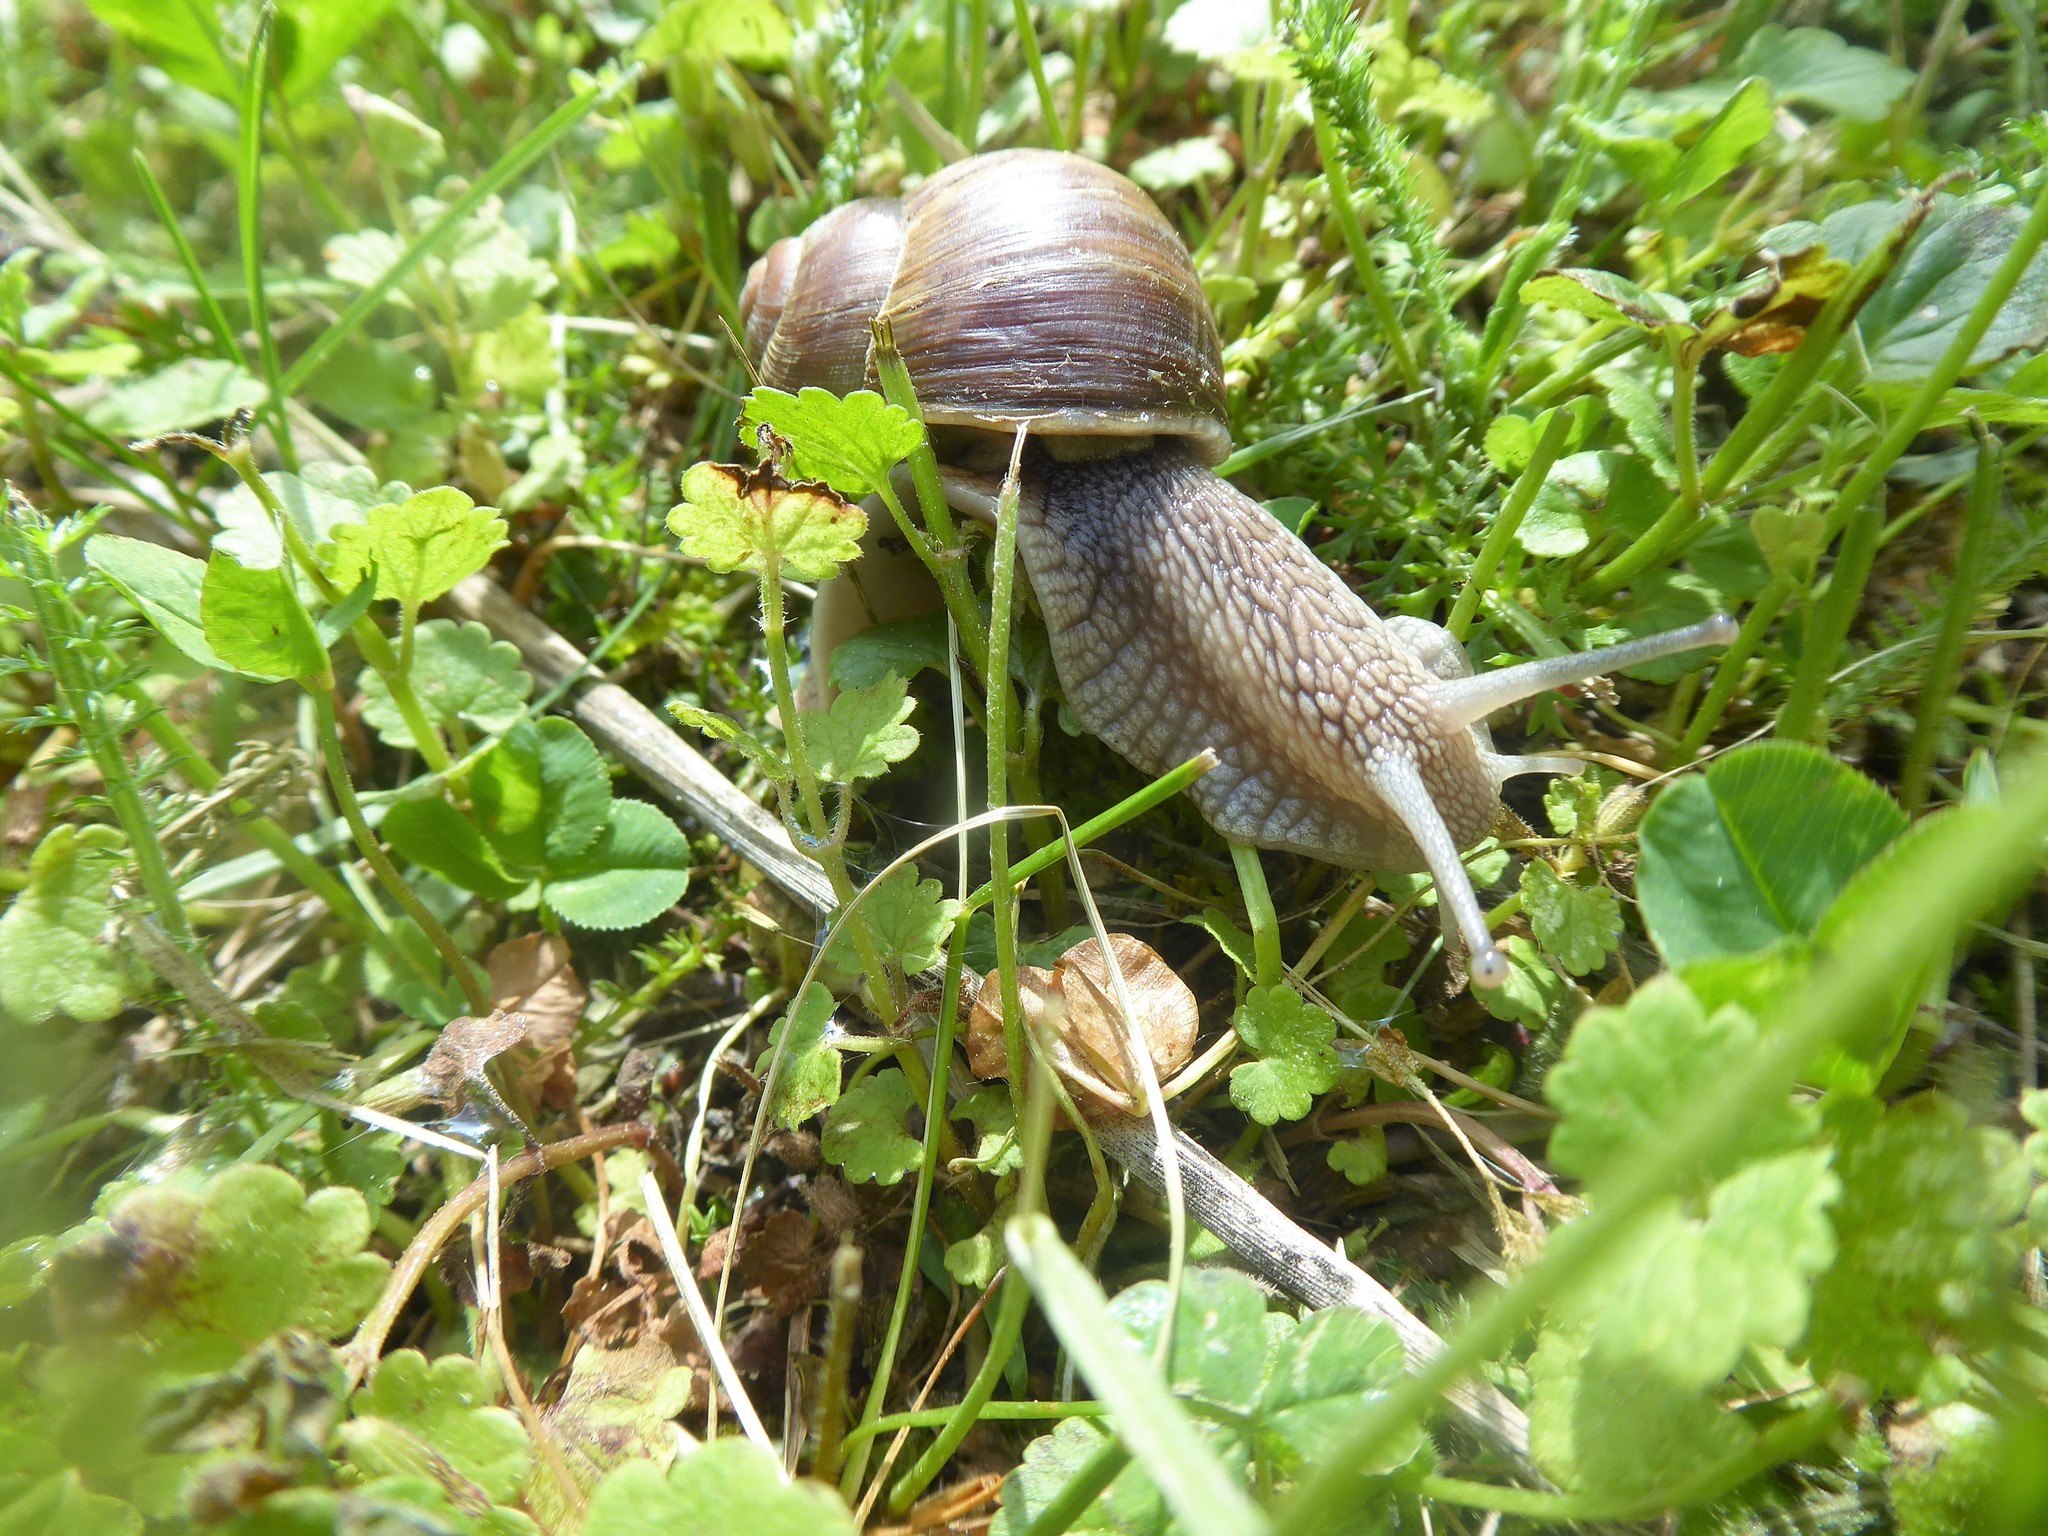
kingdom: Animalia
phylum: Mollusca
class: Gastropoda
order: Stylommatophora
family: Helicidae
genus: Helix
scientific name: Helix pomatia
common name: Roman snail
